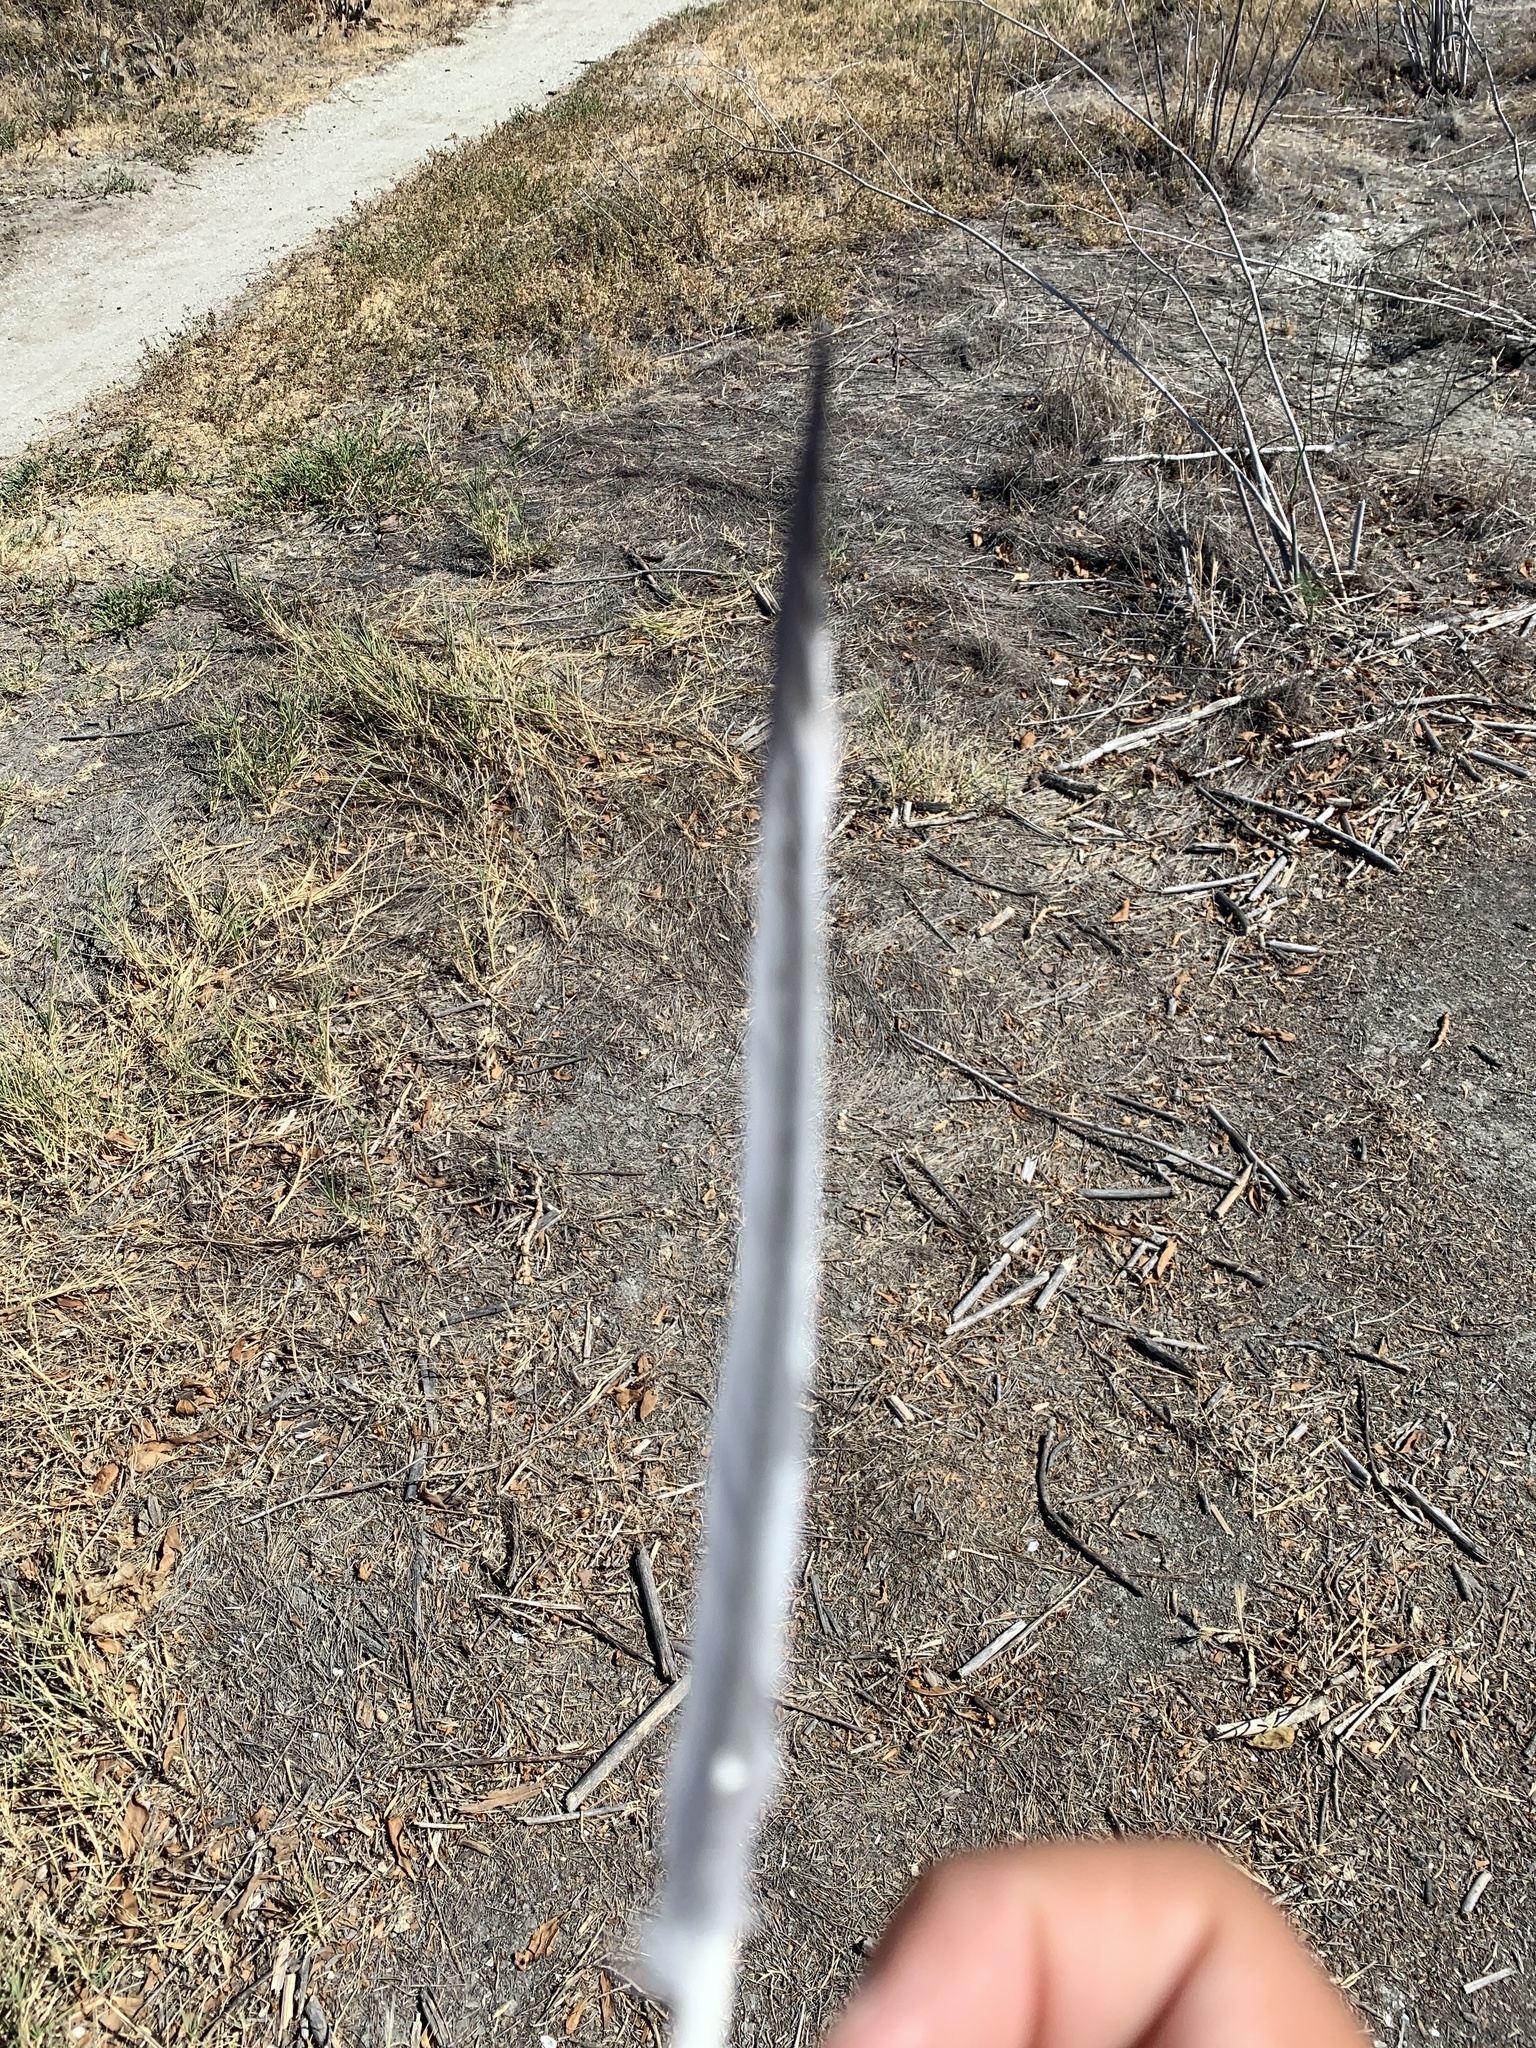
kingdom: Animalia
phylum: Chordata
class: Aves
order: Columbiformes
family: Columbidae
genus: Columba
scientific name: Columba livia
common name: Rock pigeon
